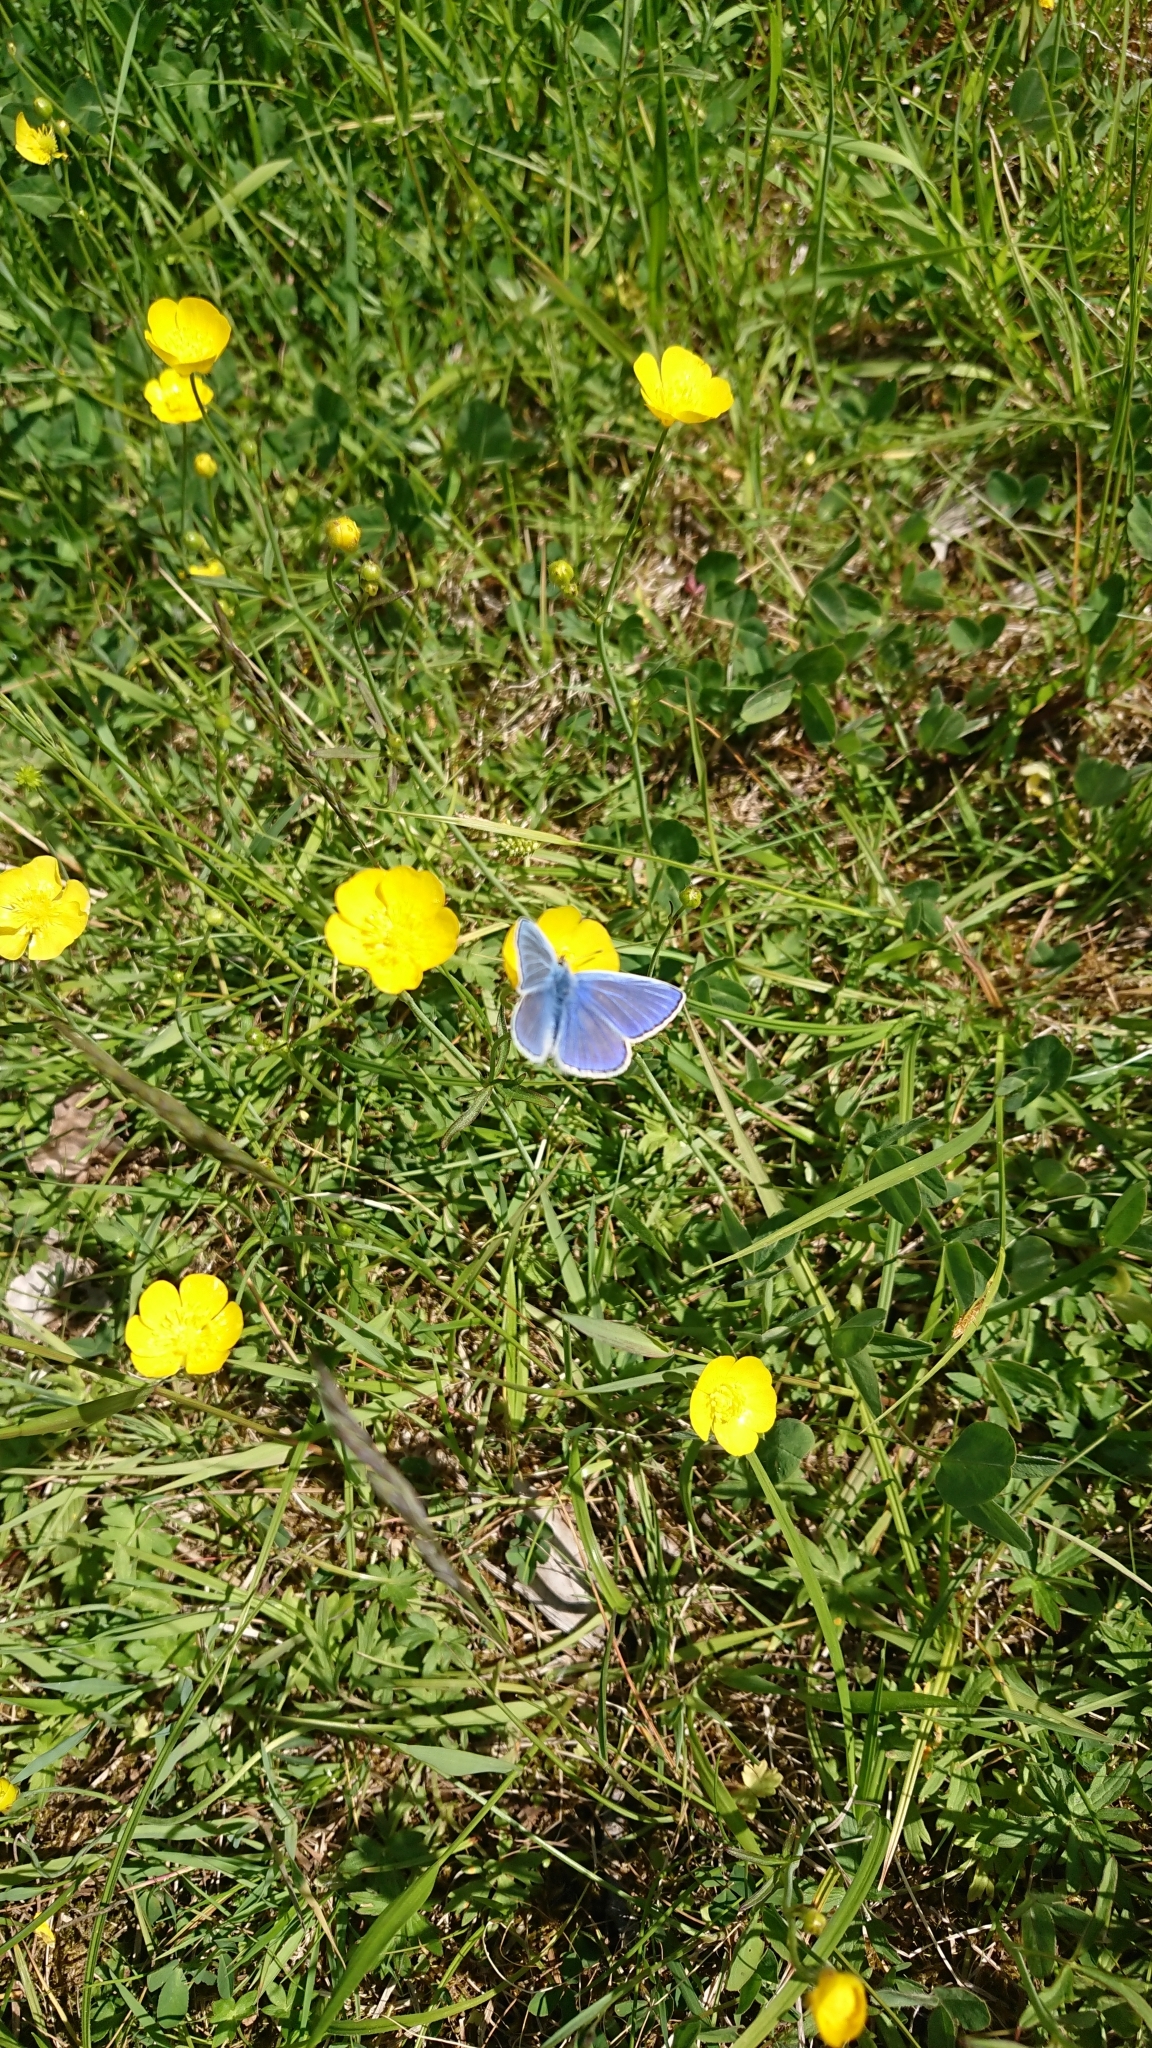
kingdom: Animalia
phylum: Arthropoda
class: Insecta
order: Lepidoptera
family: Lycaenidae
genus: Polyommatus
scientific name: Polyommatus icarus
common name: Common blue
